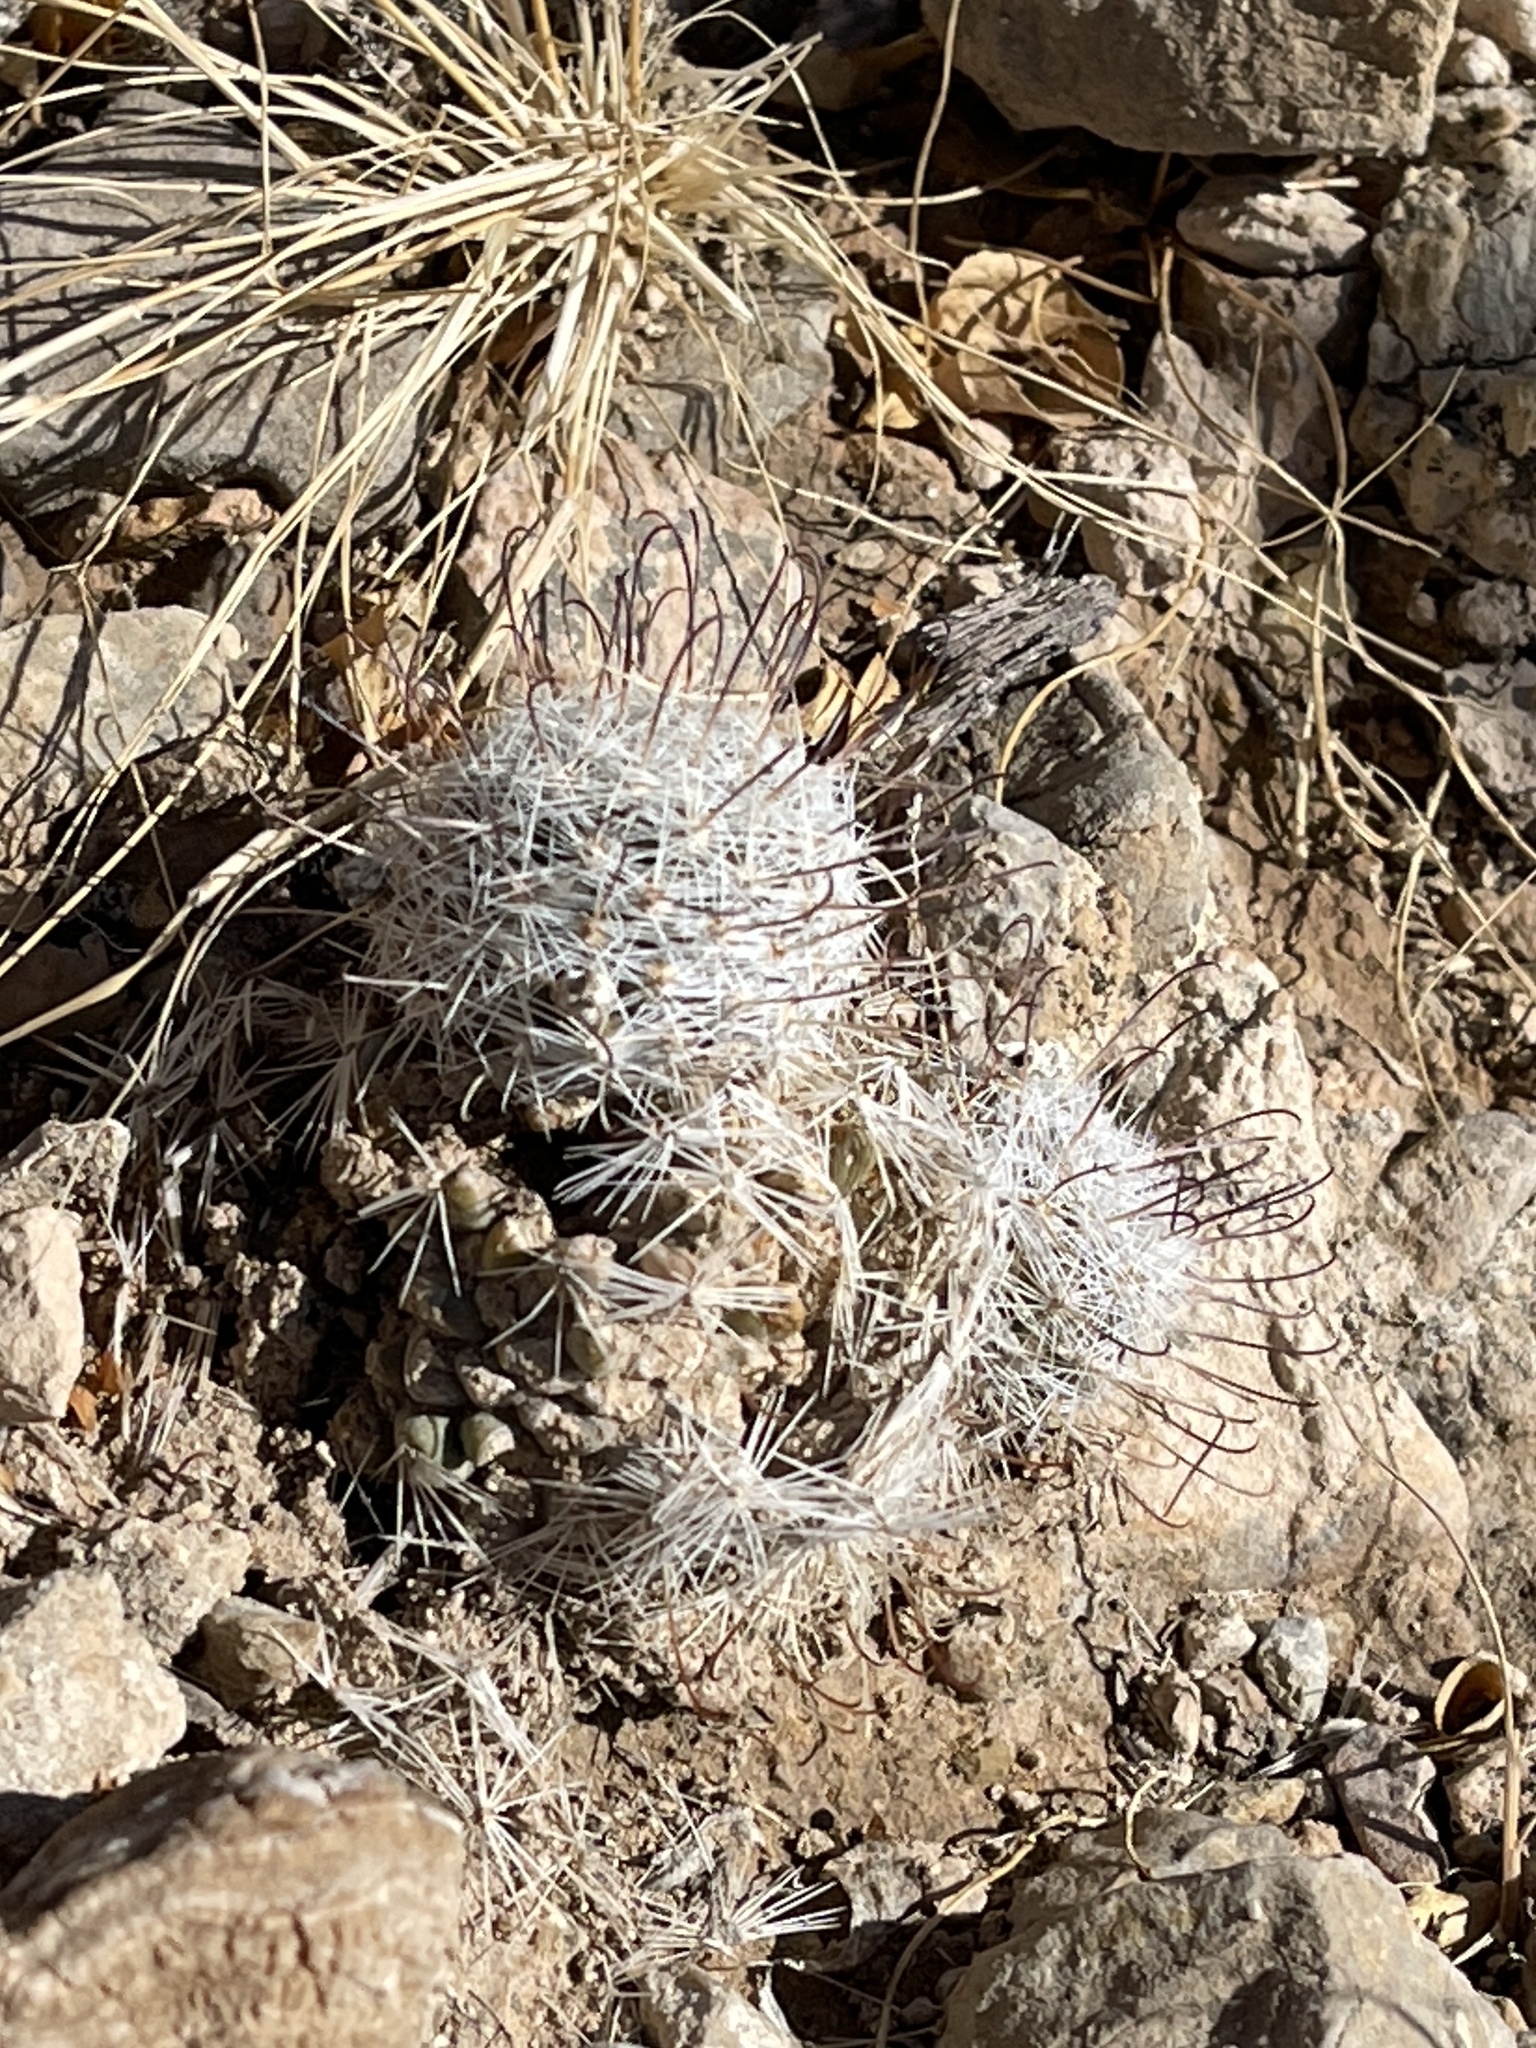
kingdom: Plantae
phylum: Tracheophyta
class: Magnoliopsida
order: Caryophyllales
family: Cactaceae
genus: Cochemiea
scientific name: Cochemiea grahamii
